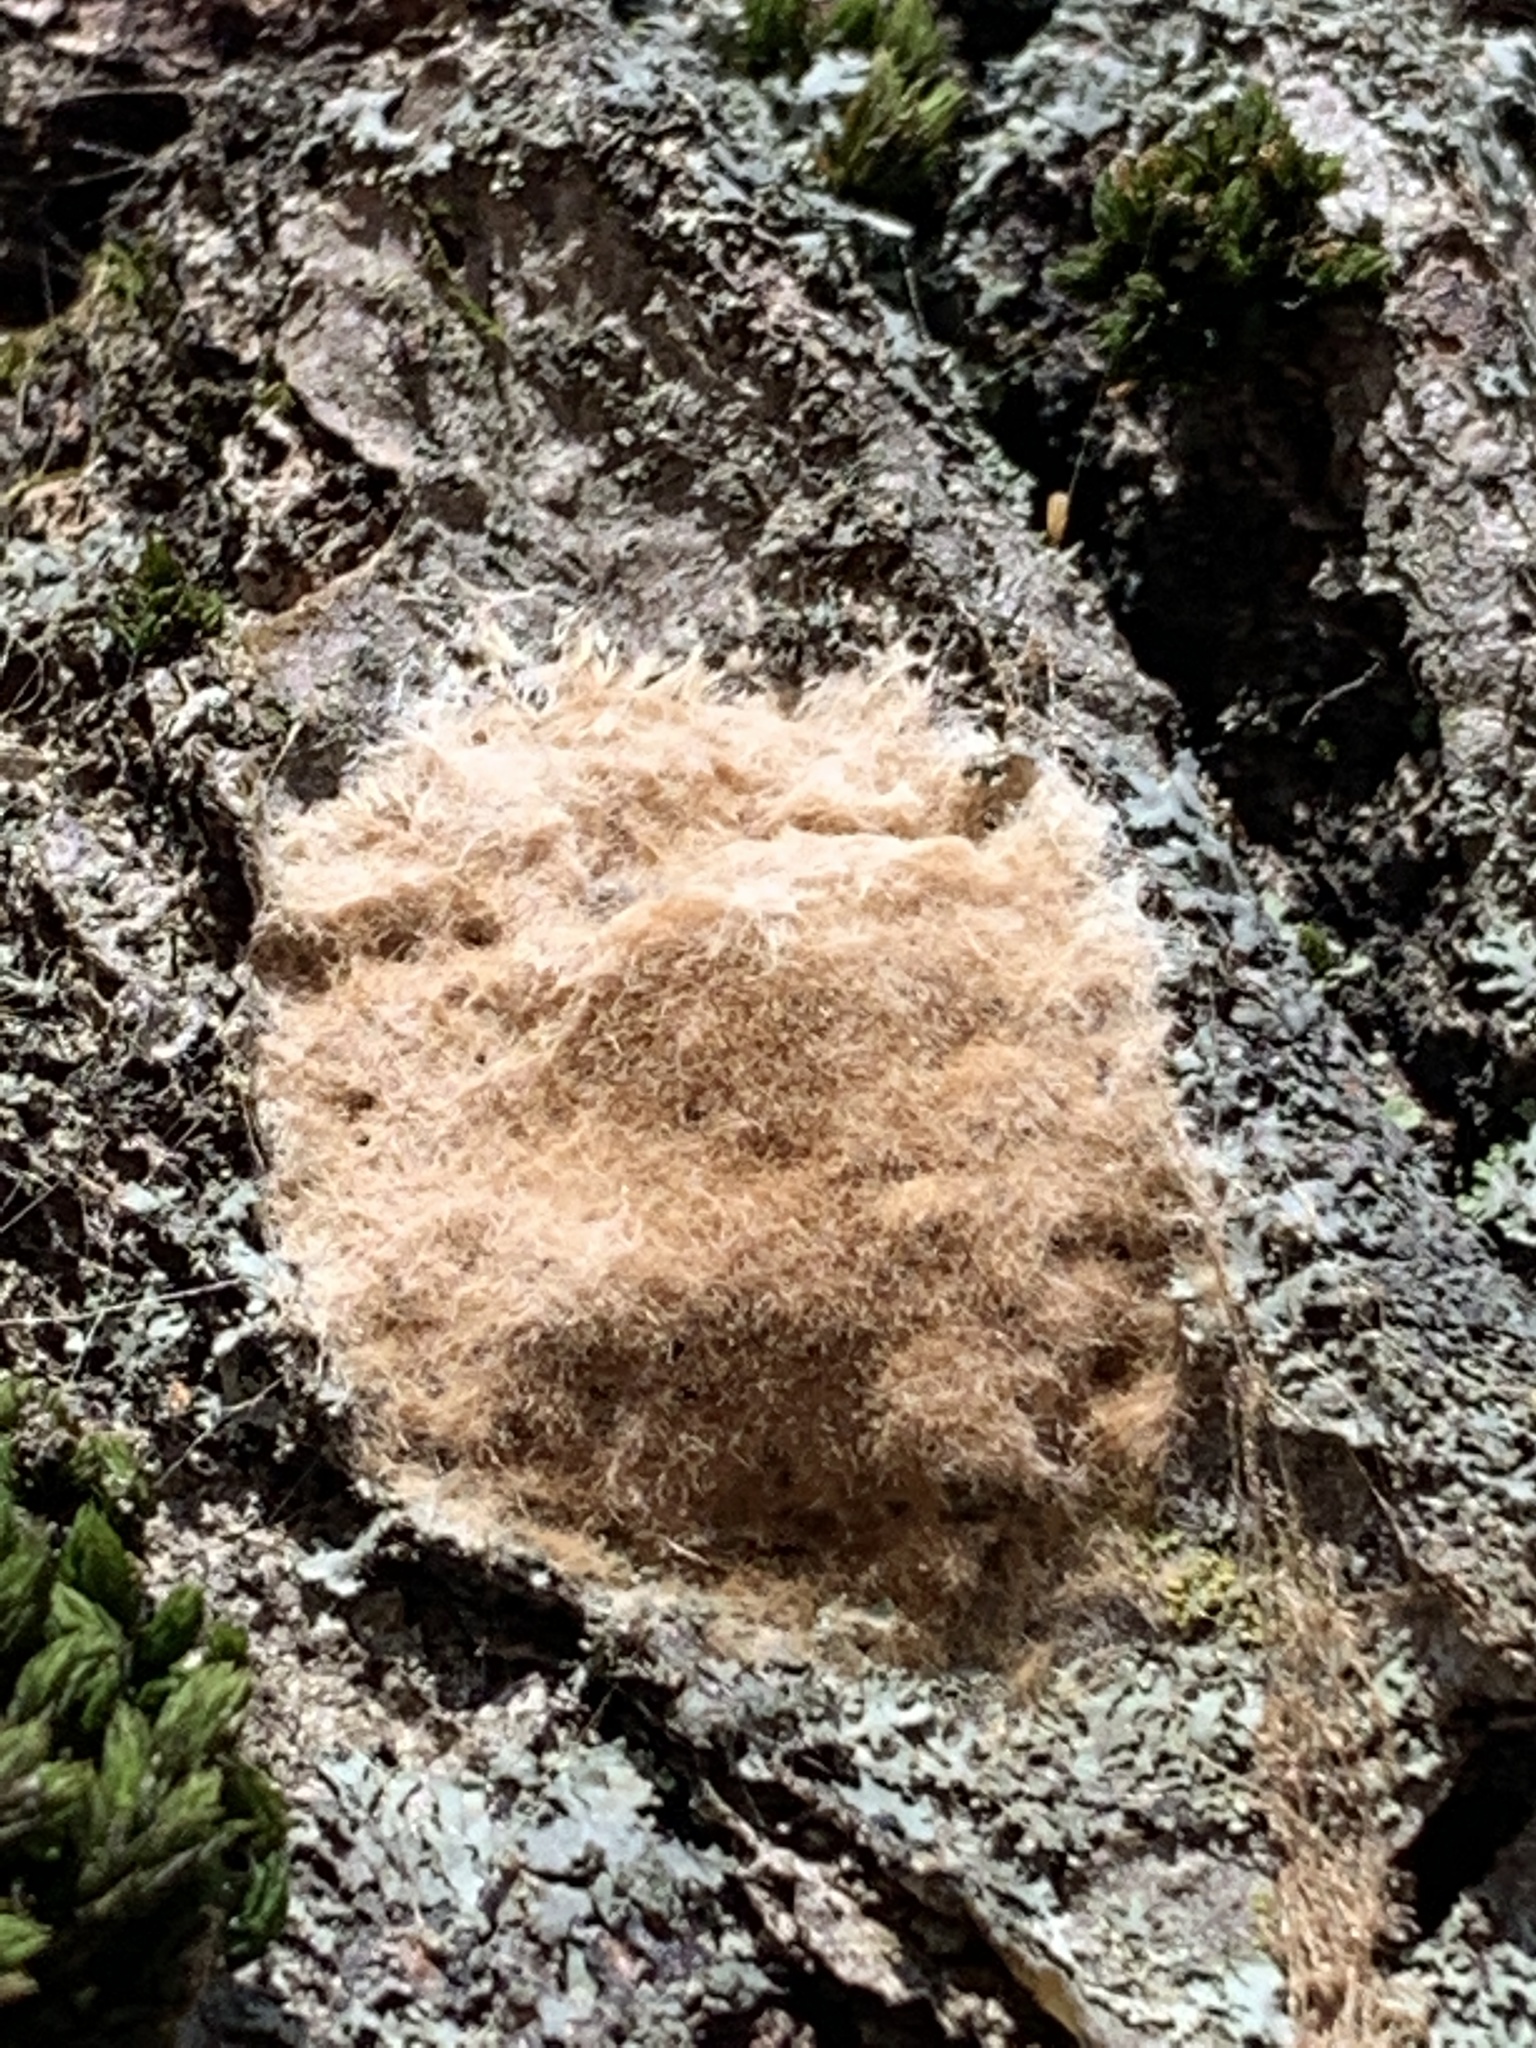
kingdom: Animalia
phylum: Arthropoda
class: Insecta
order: Lepidoptera
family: Erebidae
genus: Lymantria
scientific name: Lymantria dispar
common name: Gypsy moth
